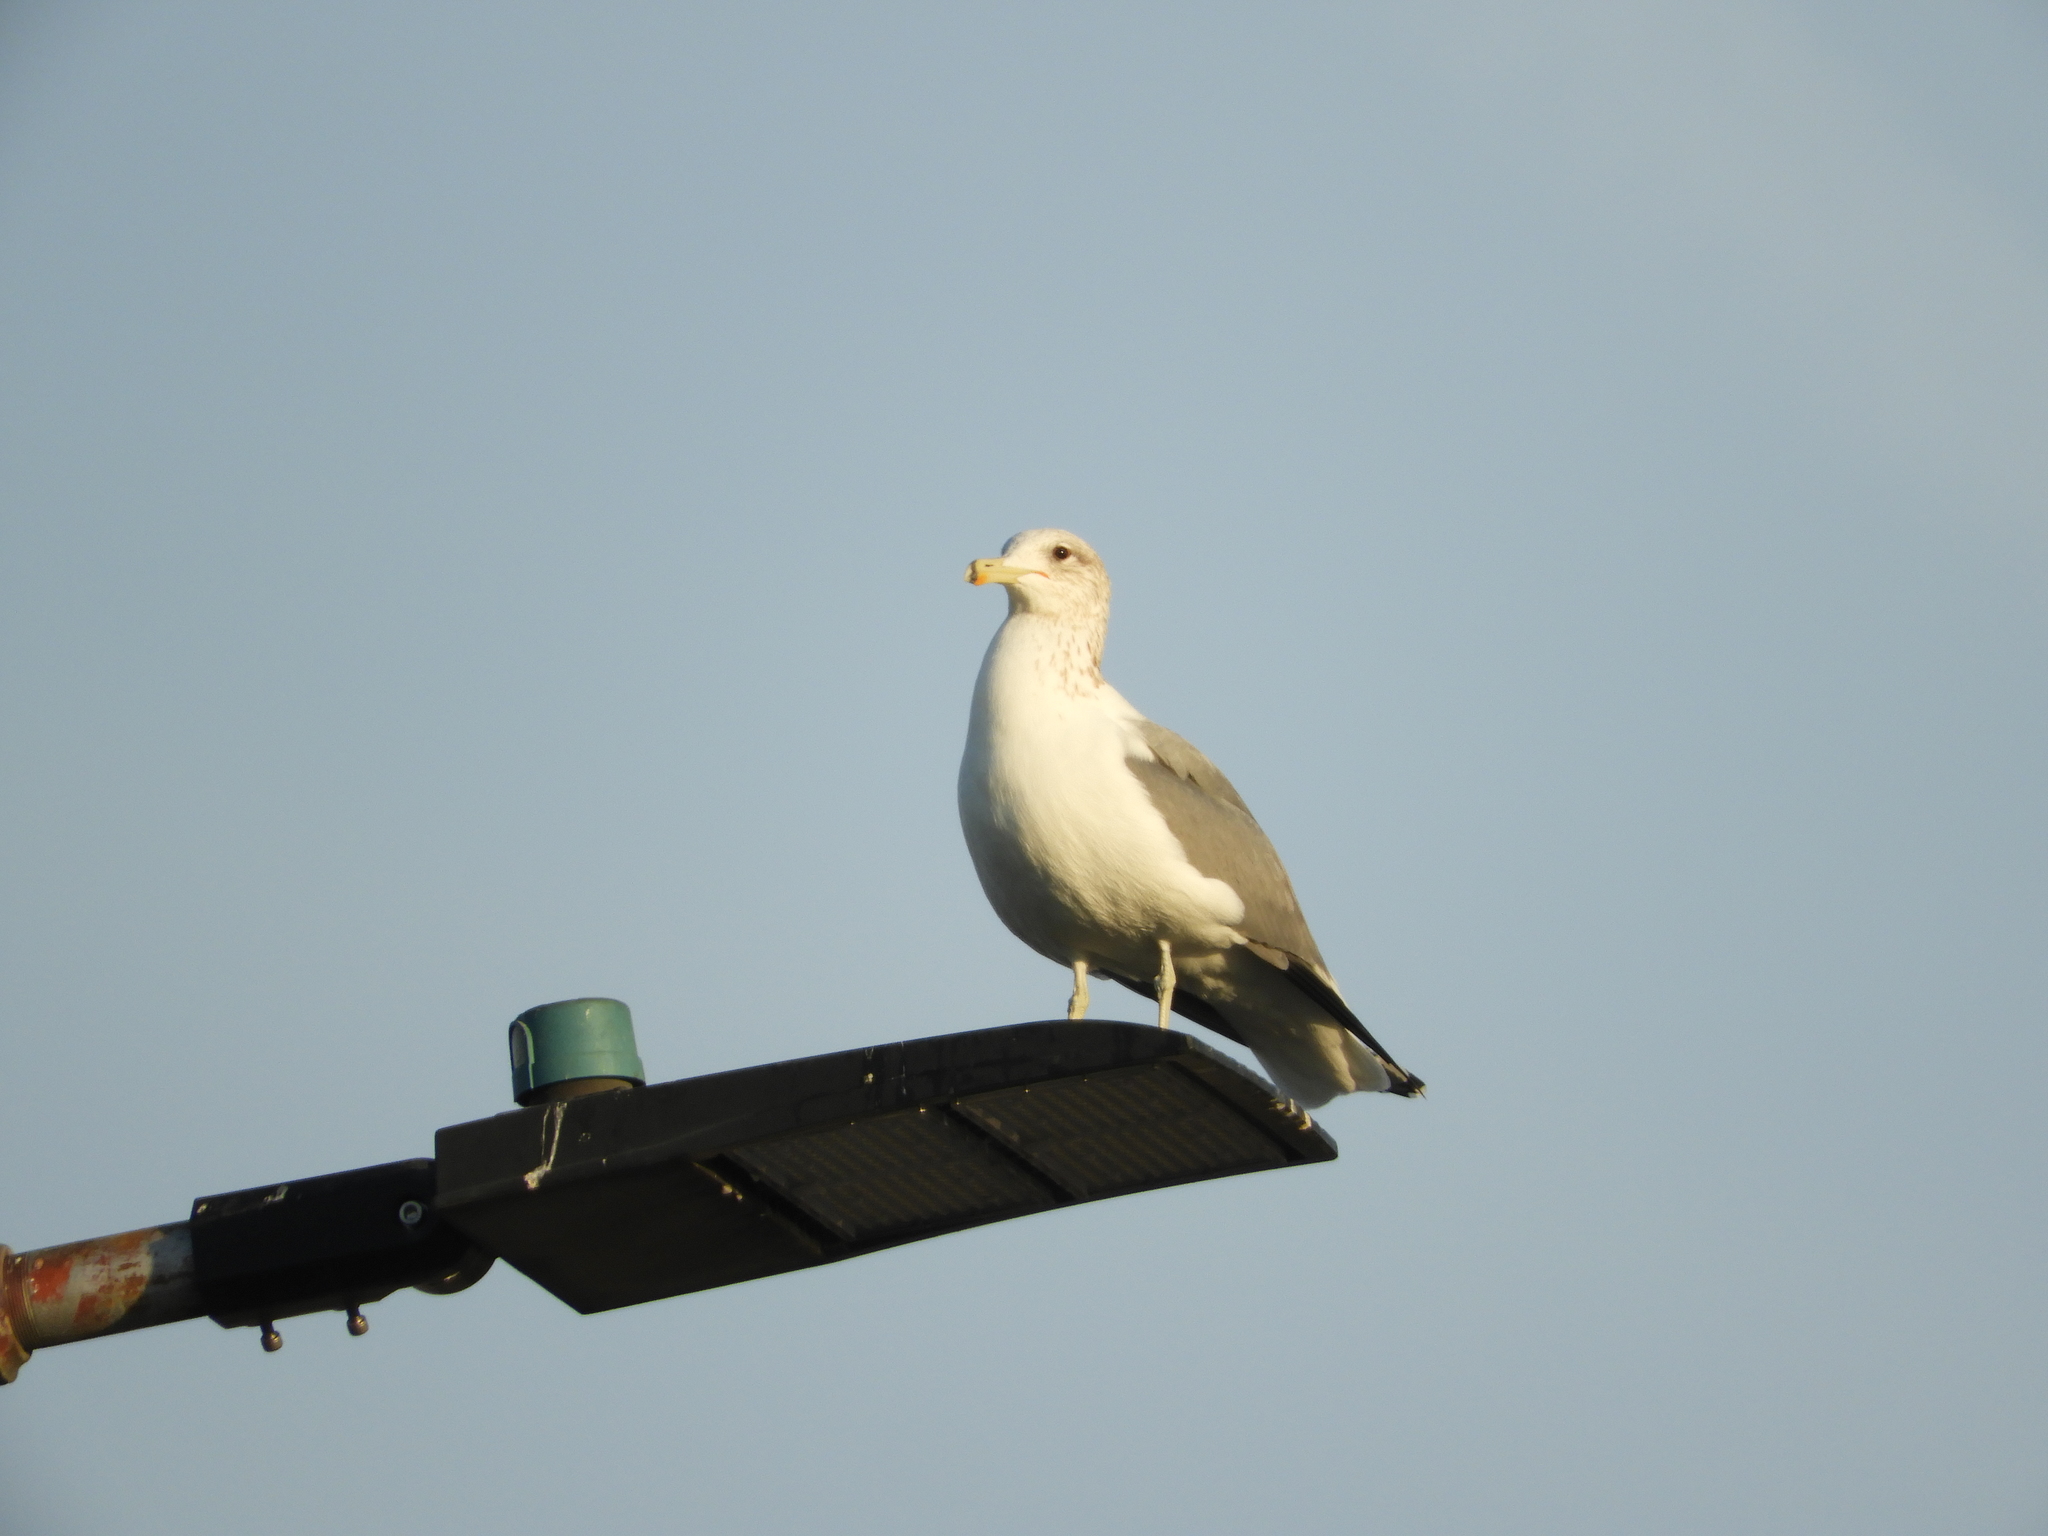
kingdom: Animalia
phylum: Chordata
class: Aves
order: Charadriiformes
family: Laridae
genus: Larus
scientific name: Larus californicus
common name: California gull
